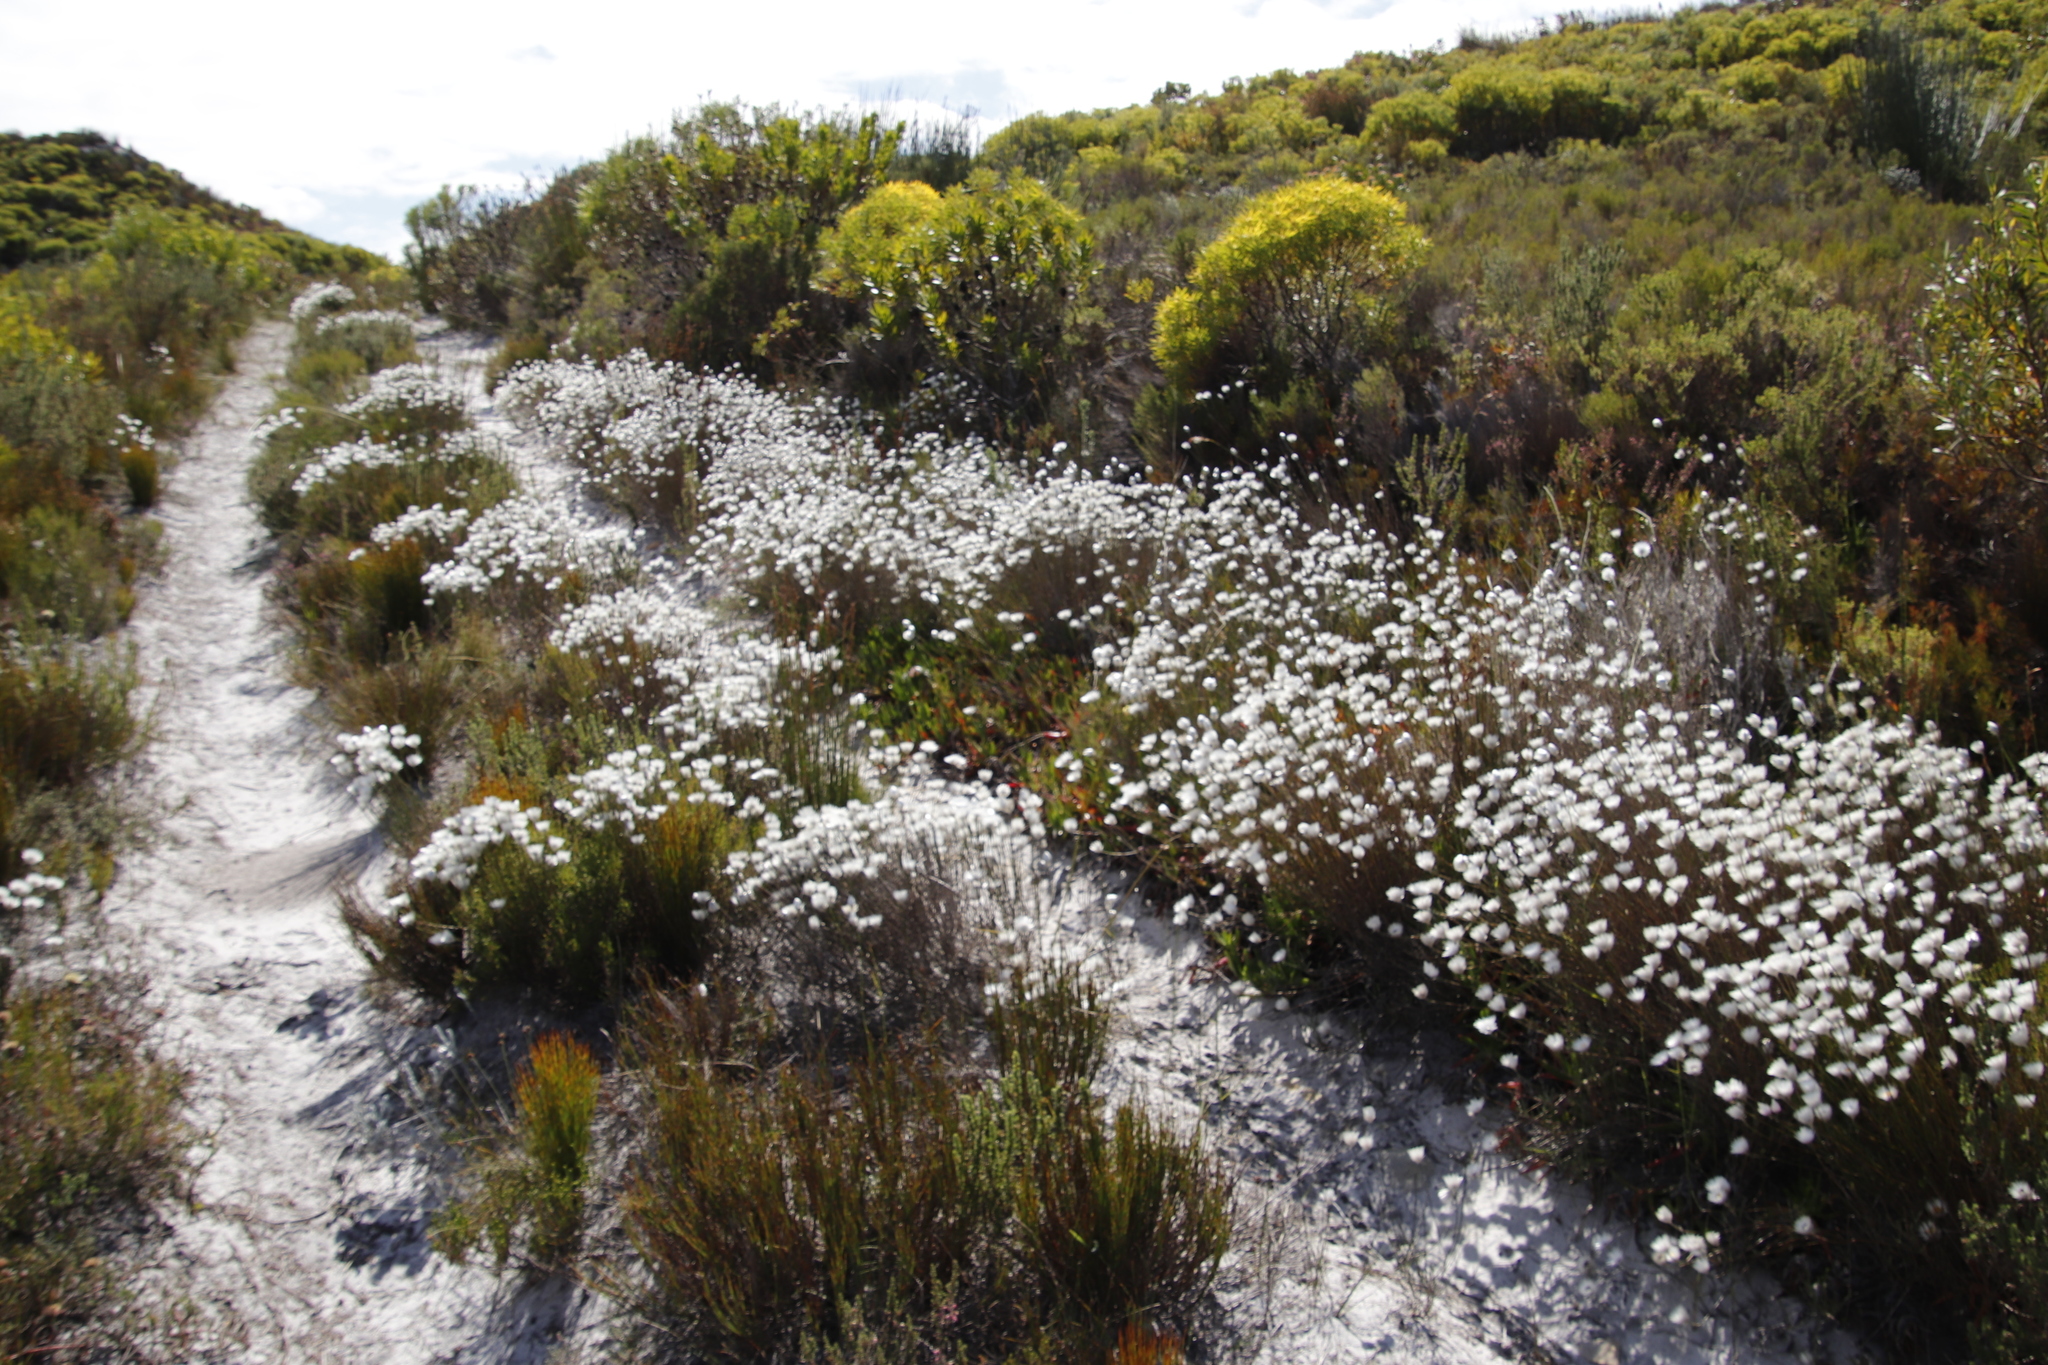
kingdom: Plantae
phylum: Tracheophyta
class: Magnoliopsida
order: Asterales
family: Asteraceae
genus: Edmondia
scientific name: Edmondia sesamoides
